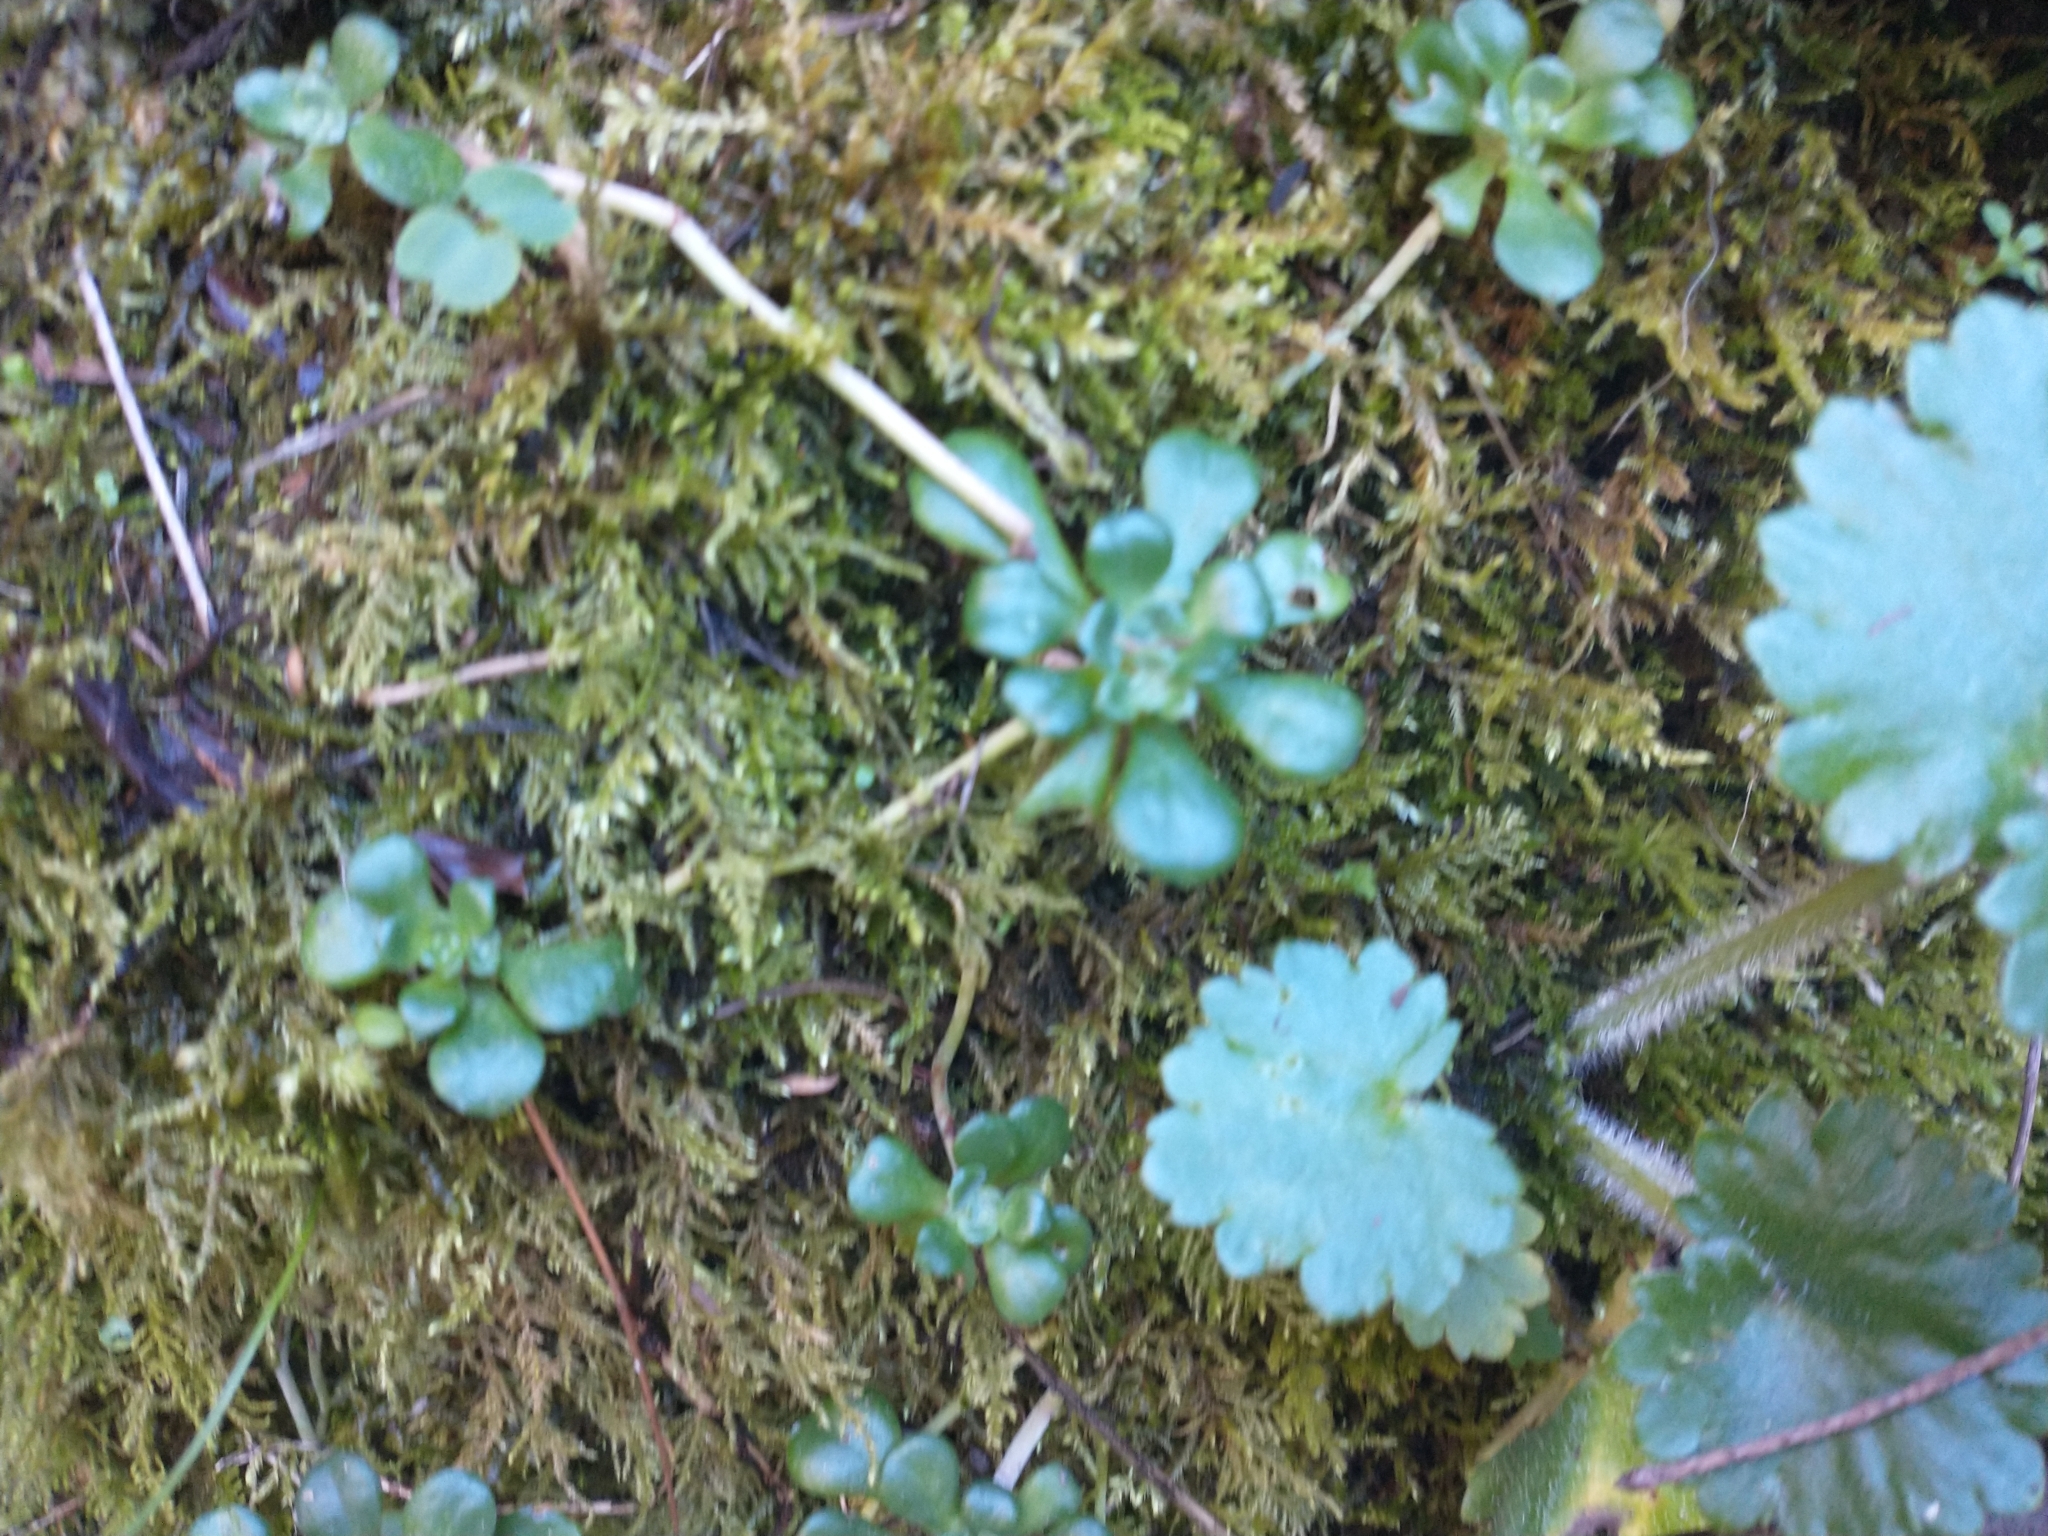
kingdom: Plantae
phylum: Tracheophyta
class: Magnoliopsida
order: Saxifragales
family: Crassulaceae
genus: Sedum
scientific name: Sedum oreganum
